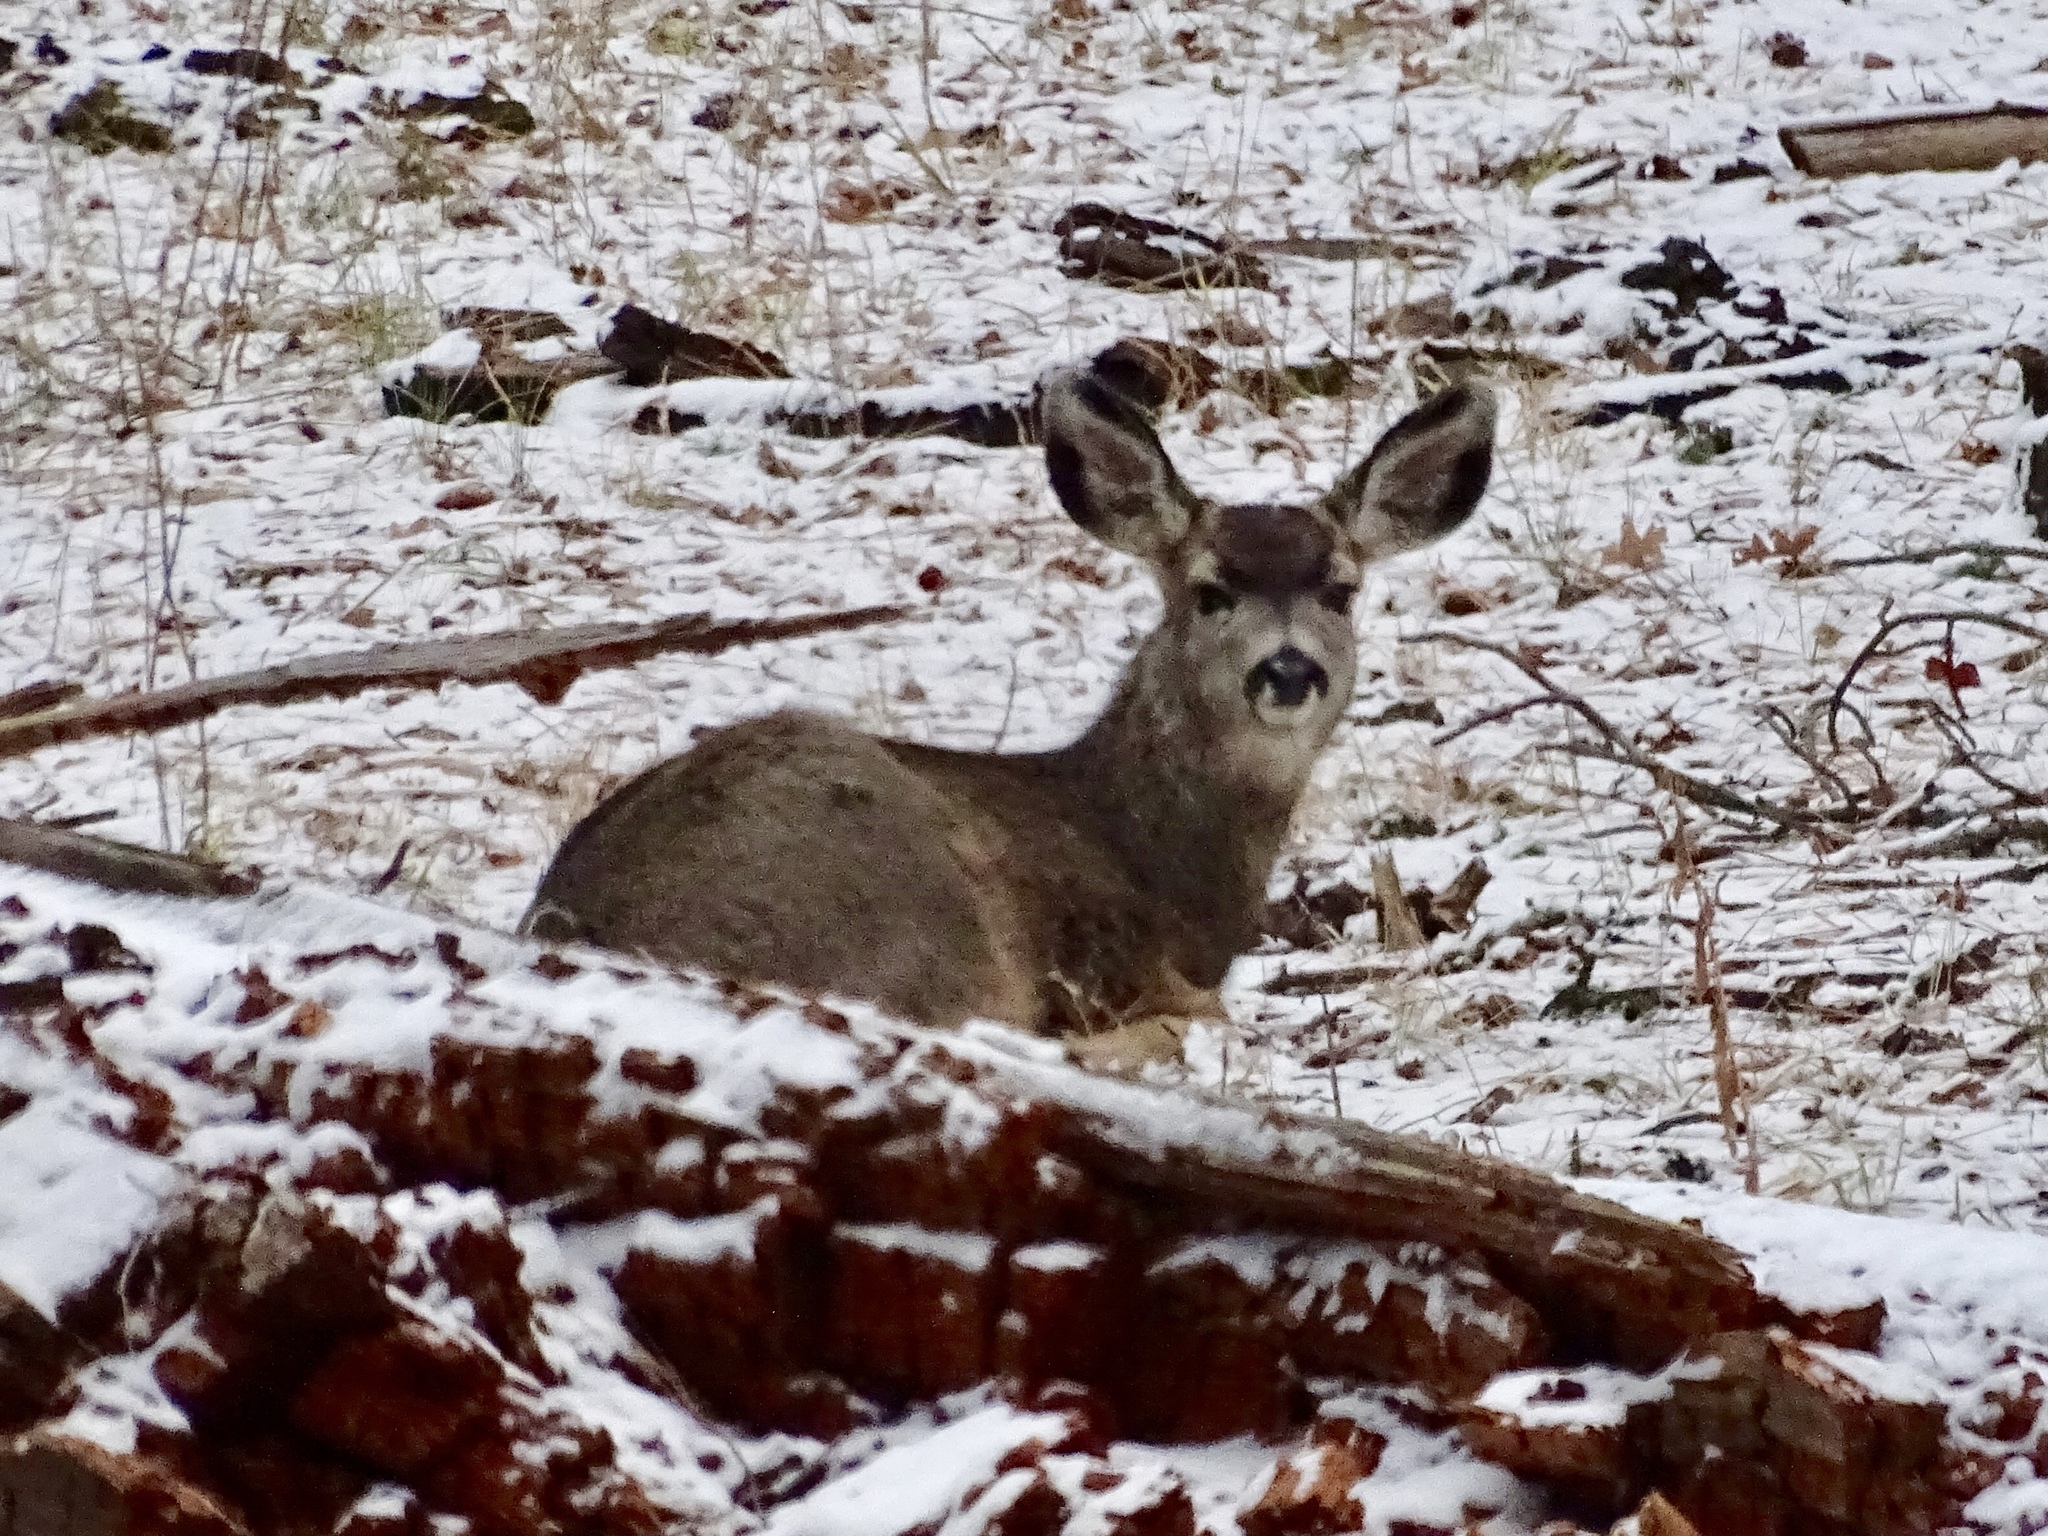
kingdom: Animalia
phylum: Chordata
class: Mammalia
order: Artiodactyla
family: Cervidae
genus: Odocoileus
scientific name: Odocoileus hemionus
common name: Mule deer
